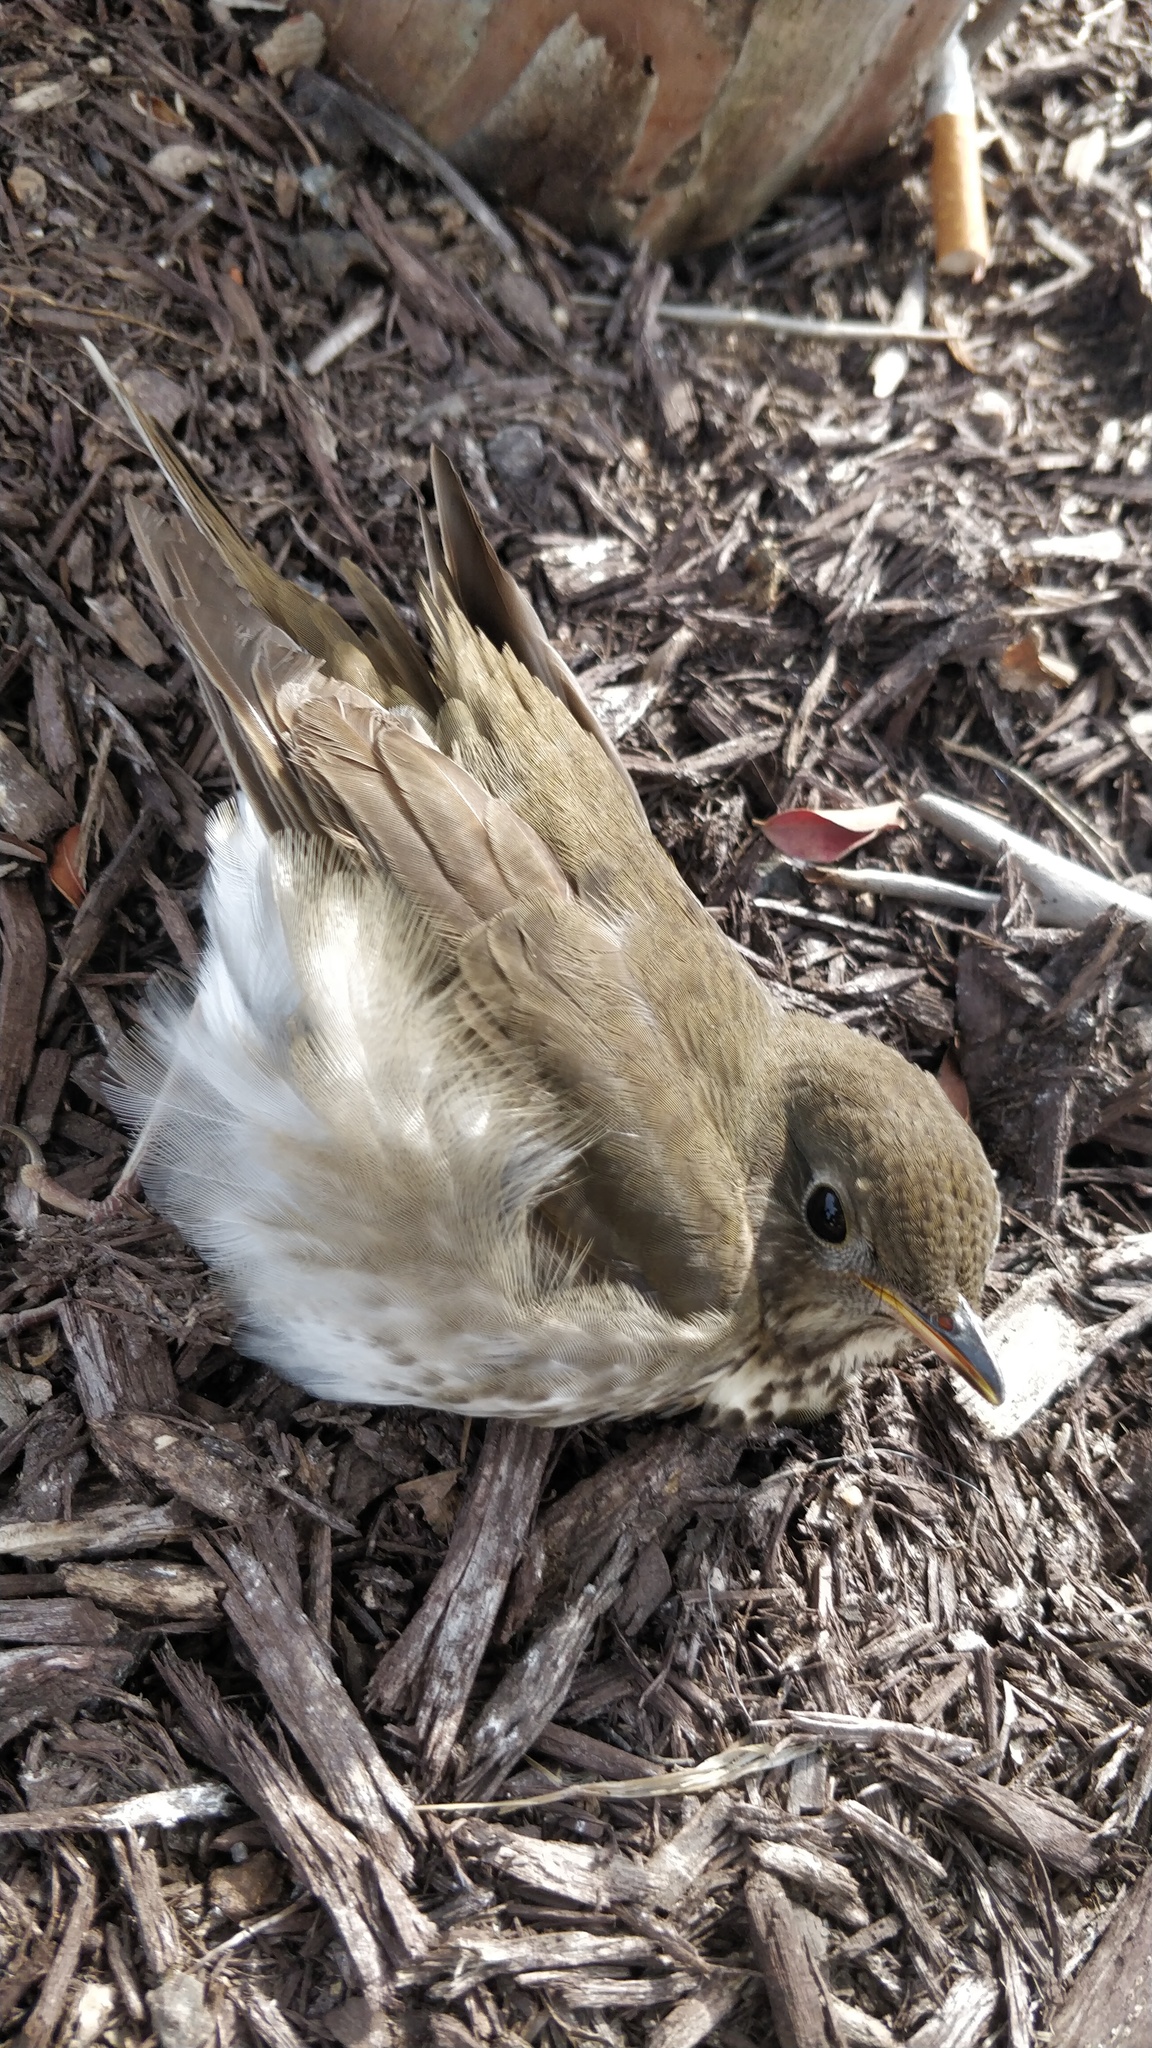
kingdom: Animalia
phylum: Chordata
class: Aves
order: Passeriformes
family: Turdidae
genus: Catharus
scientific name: Catharus minimus
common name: Grey-cheeked thrush
